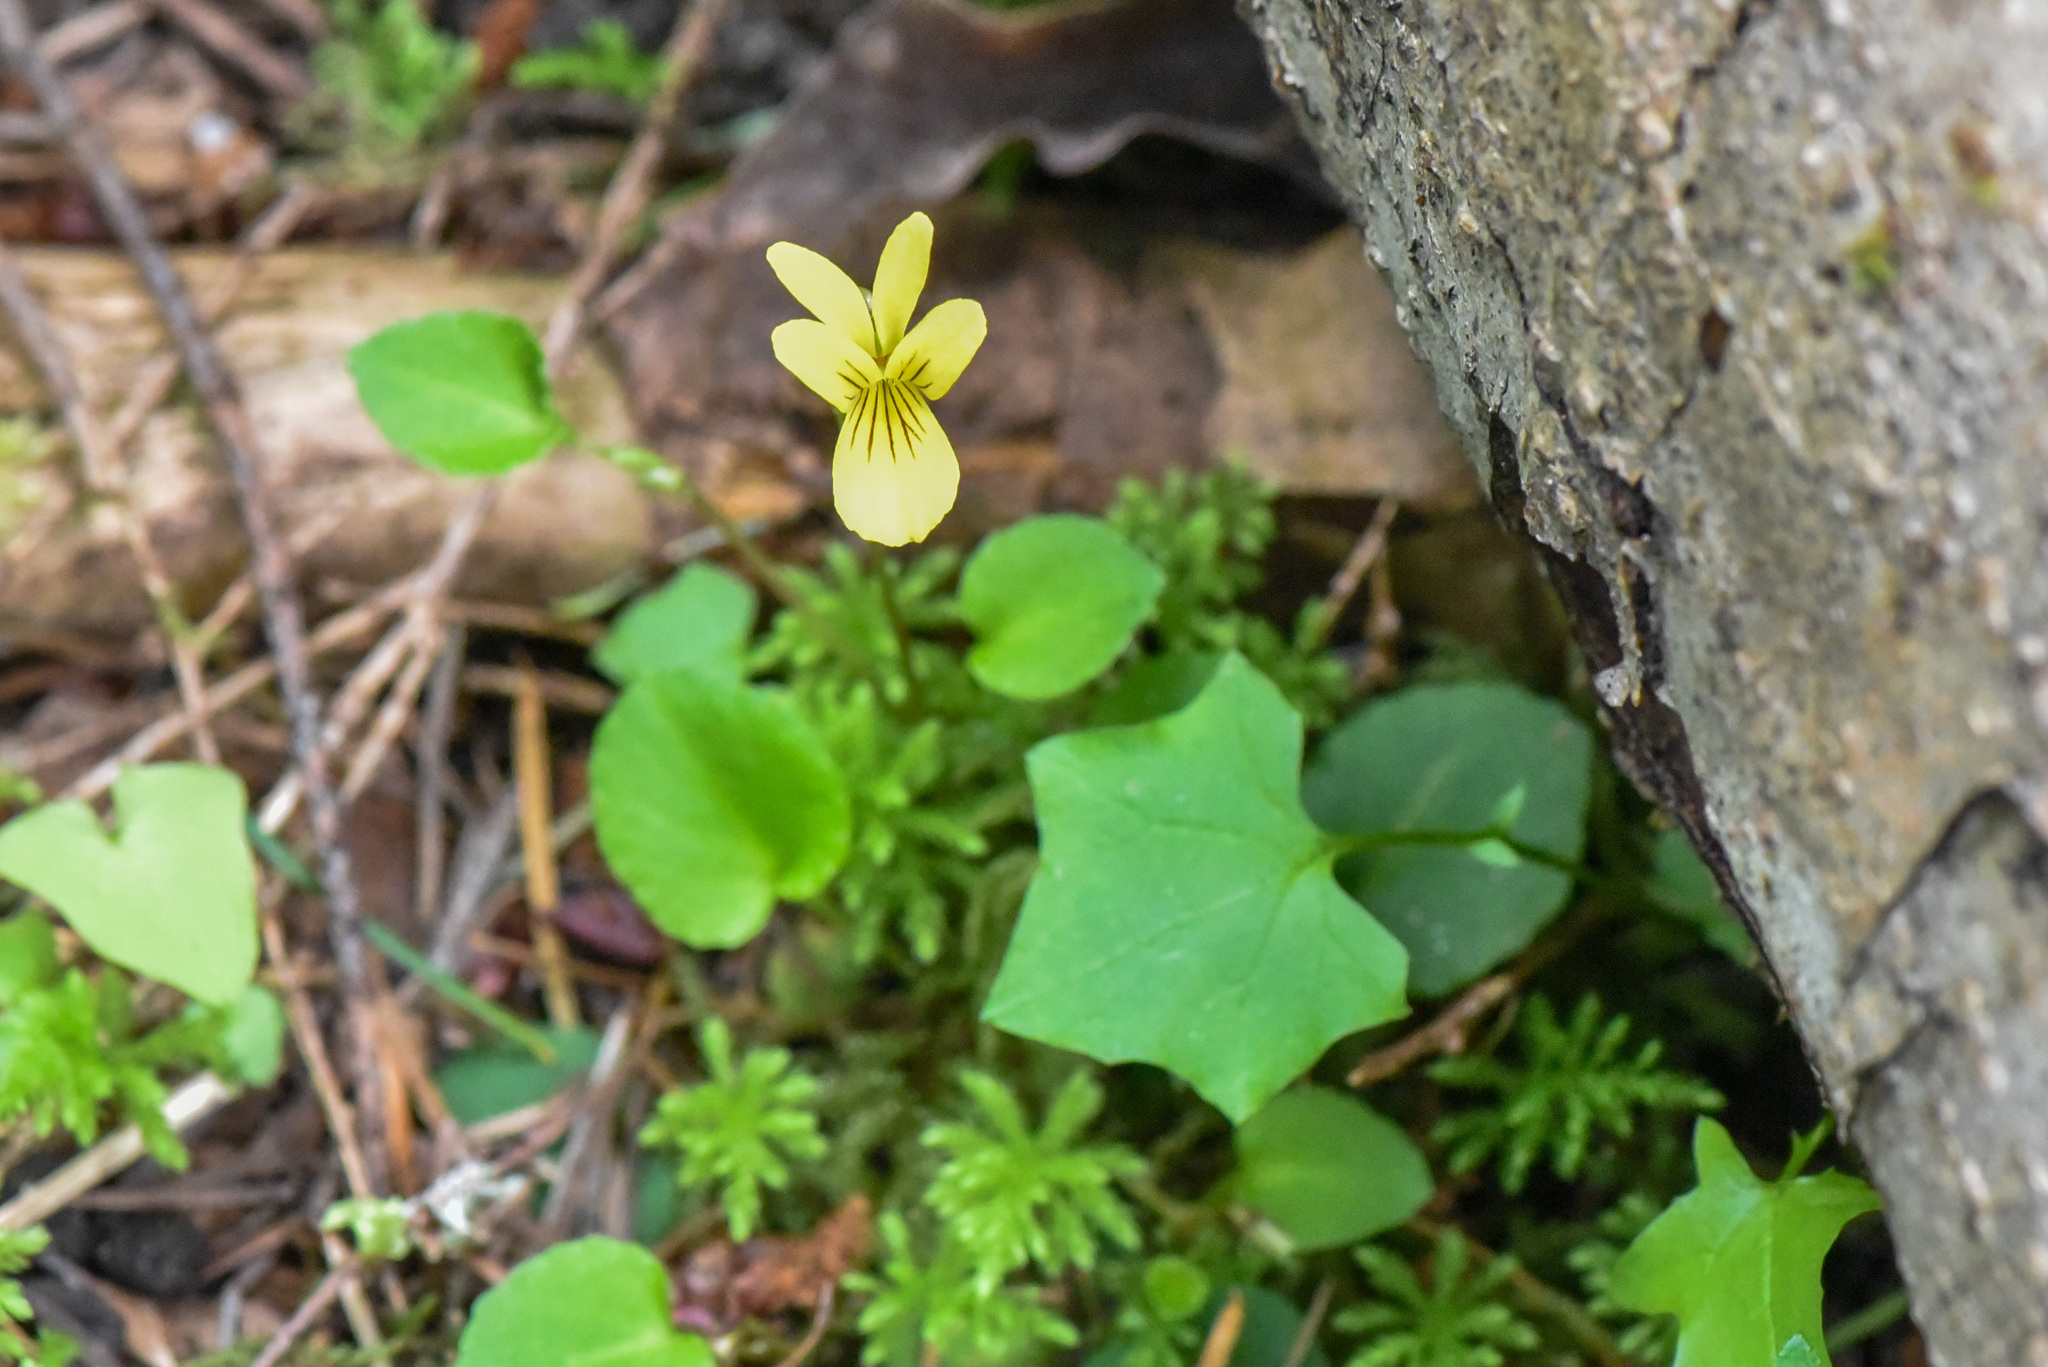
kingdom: Plantae
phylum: Tracheophyta
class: Magnoliopsida
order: Asterales
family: Asteraceae
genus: Mycelis
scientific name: Mycelis muralis
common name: Wall lettuce
